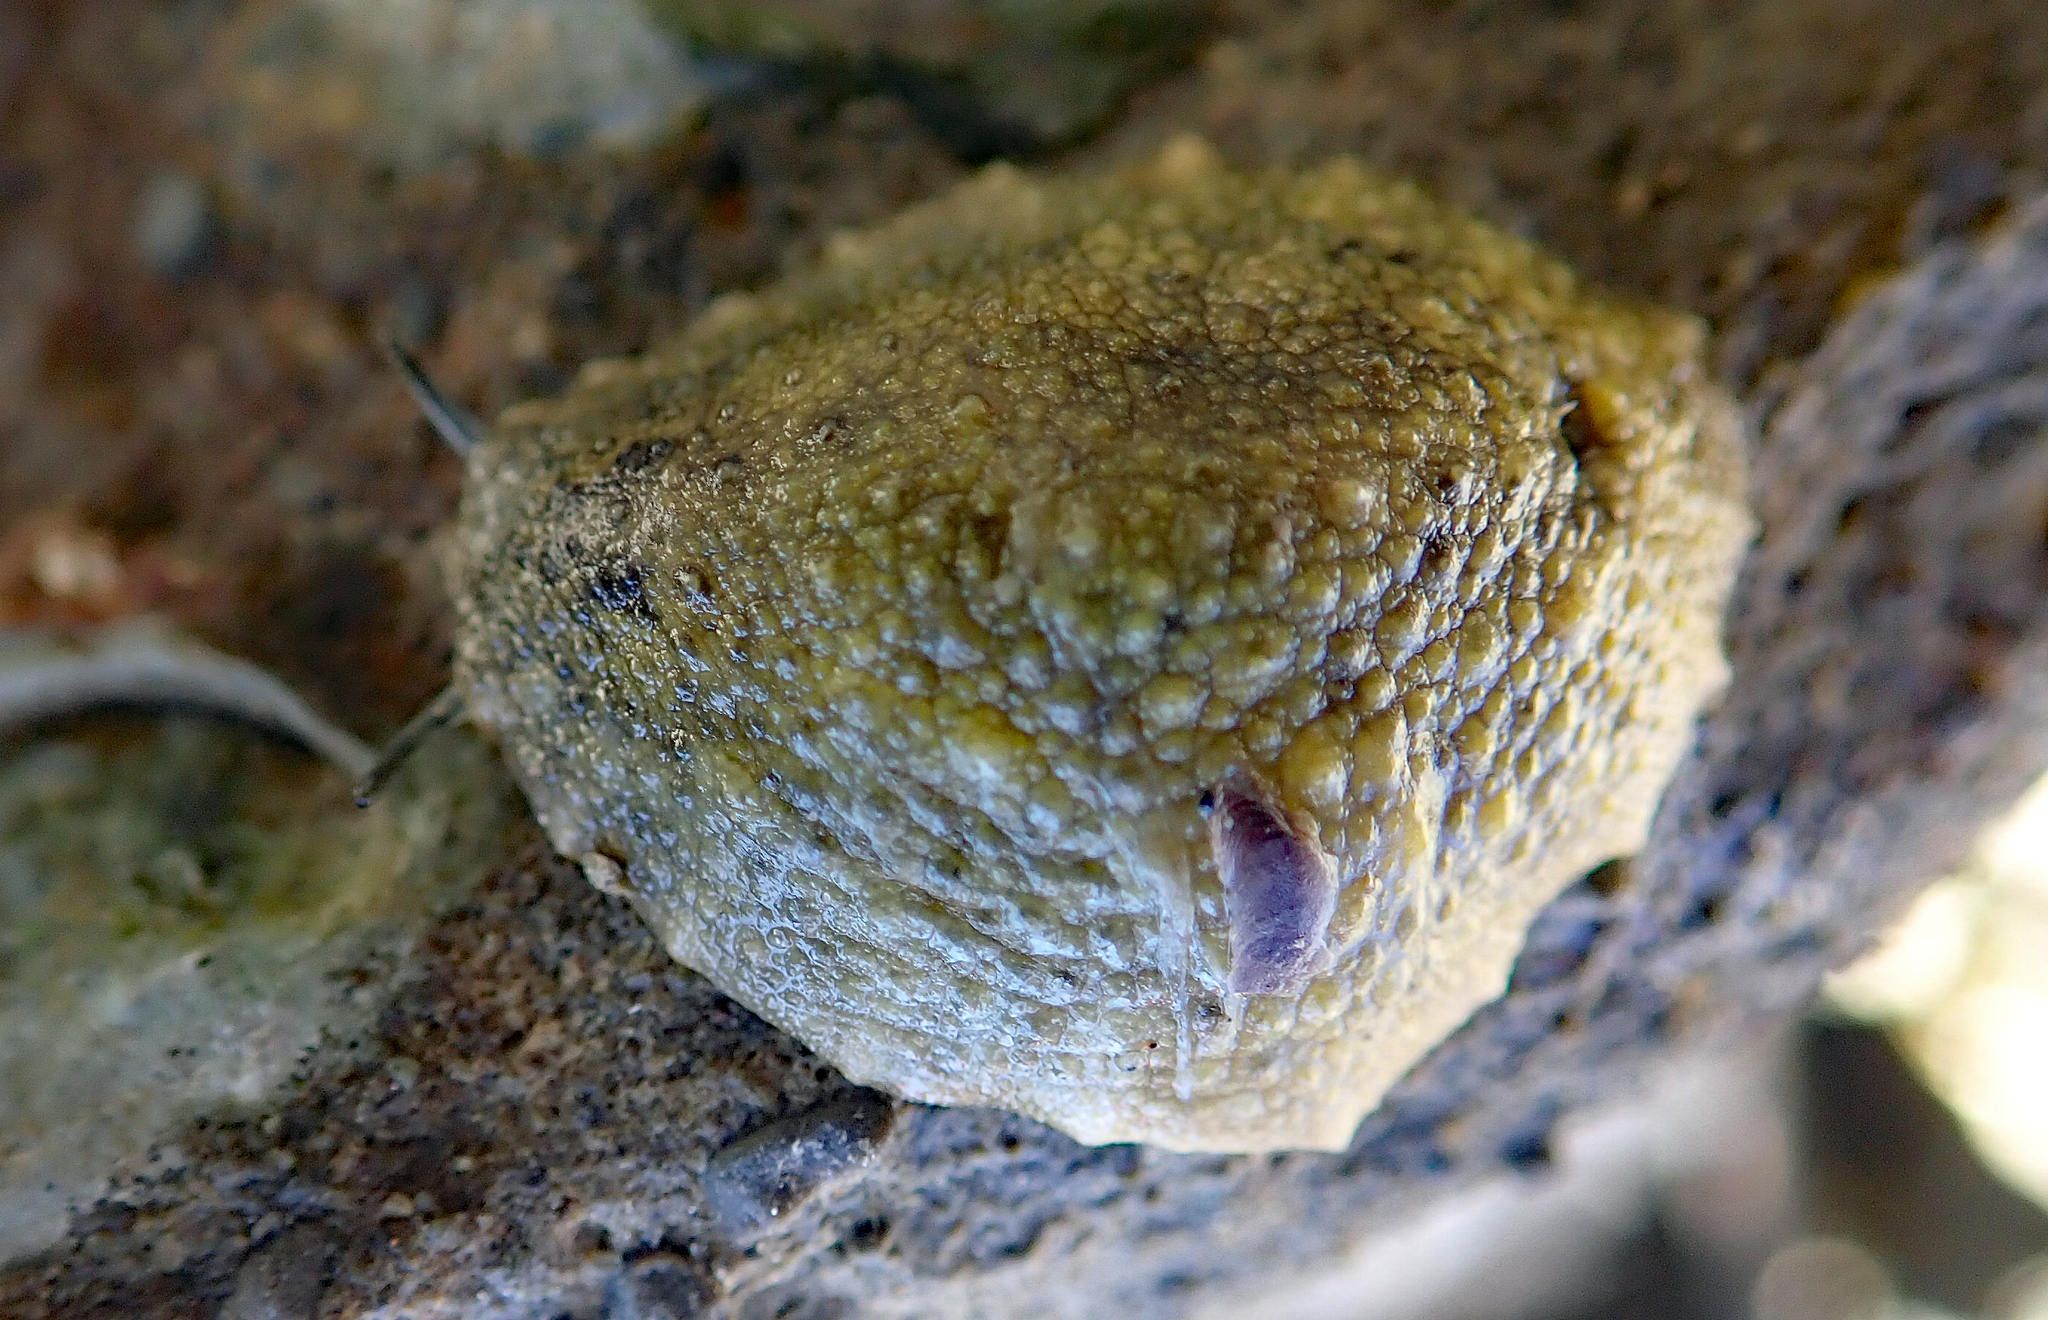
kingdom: Animalia
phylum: Mollusca
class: Gastropoda
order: Systellommatophora
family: Onchidiidae
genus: Onchidella
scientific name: Onchidella nigricans
